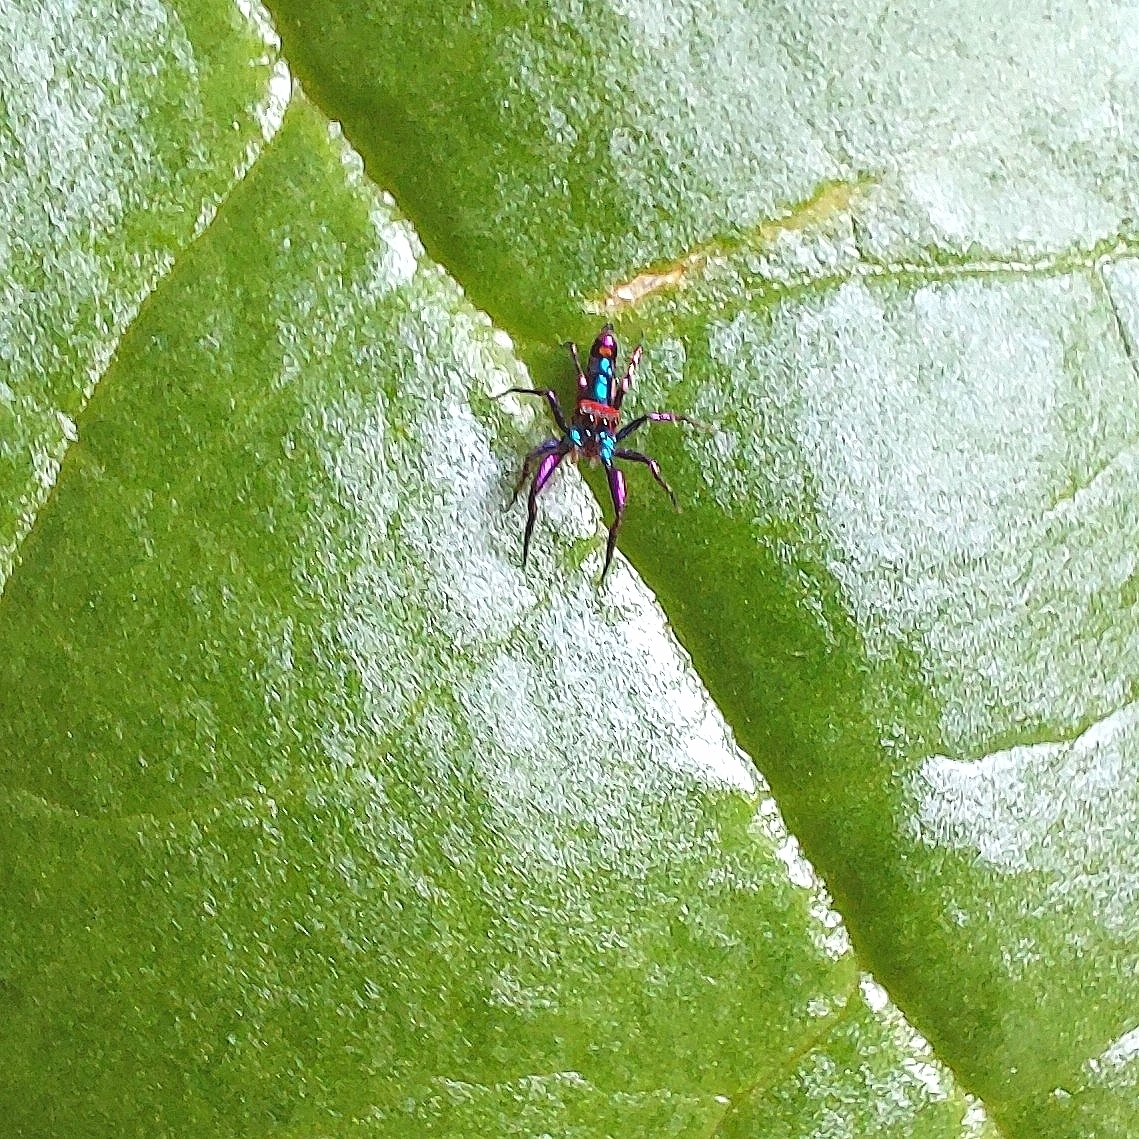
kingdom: Animalia
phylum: Arthropoda
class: Arachnida
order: Araneae
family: Salticidae
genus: Chrysilla
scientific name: Chrysilla volupe
